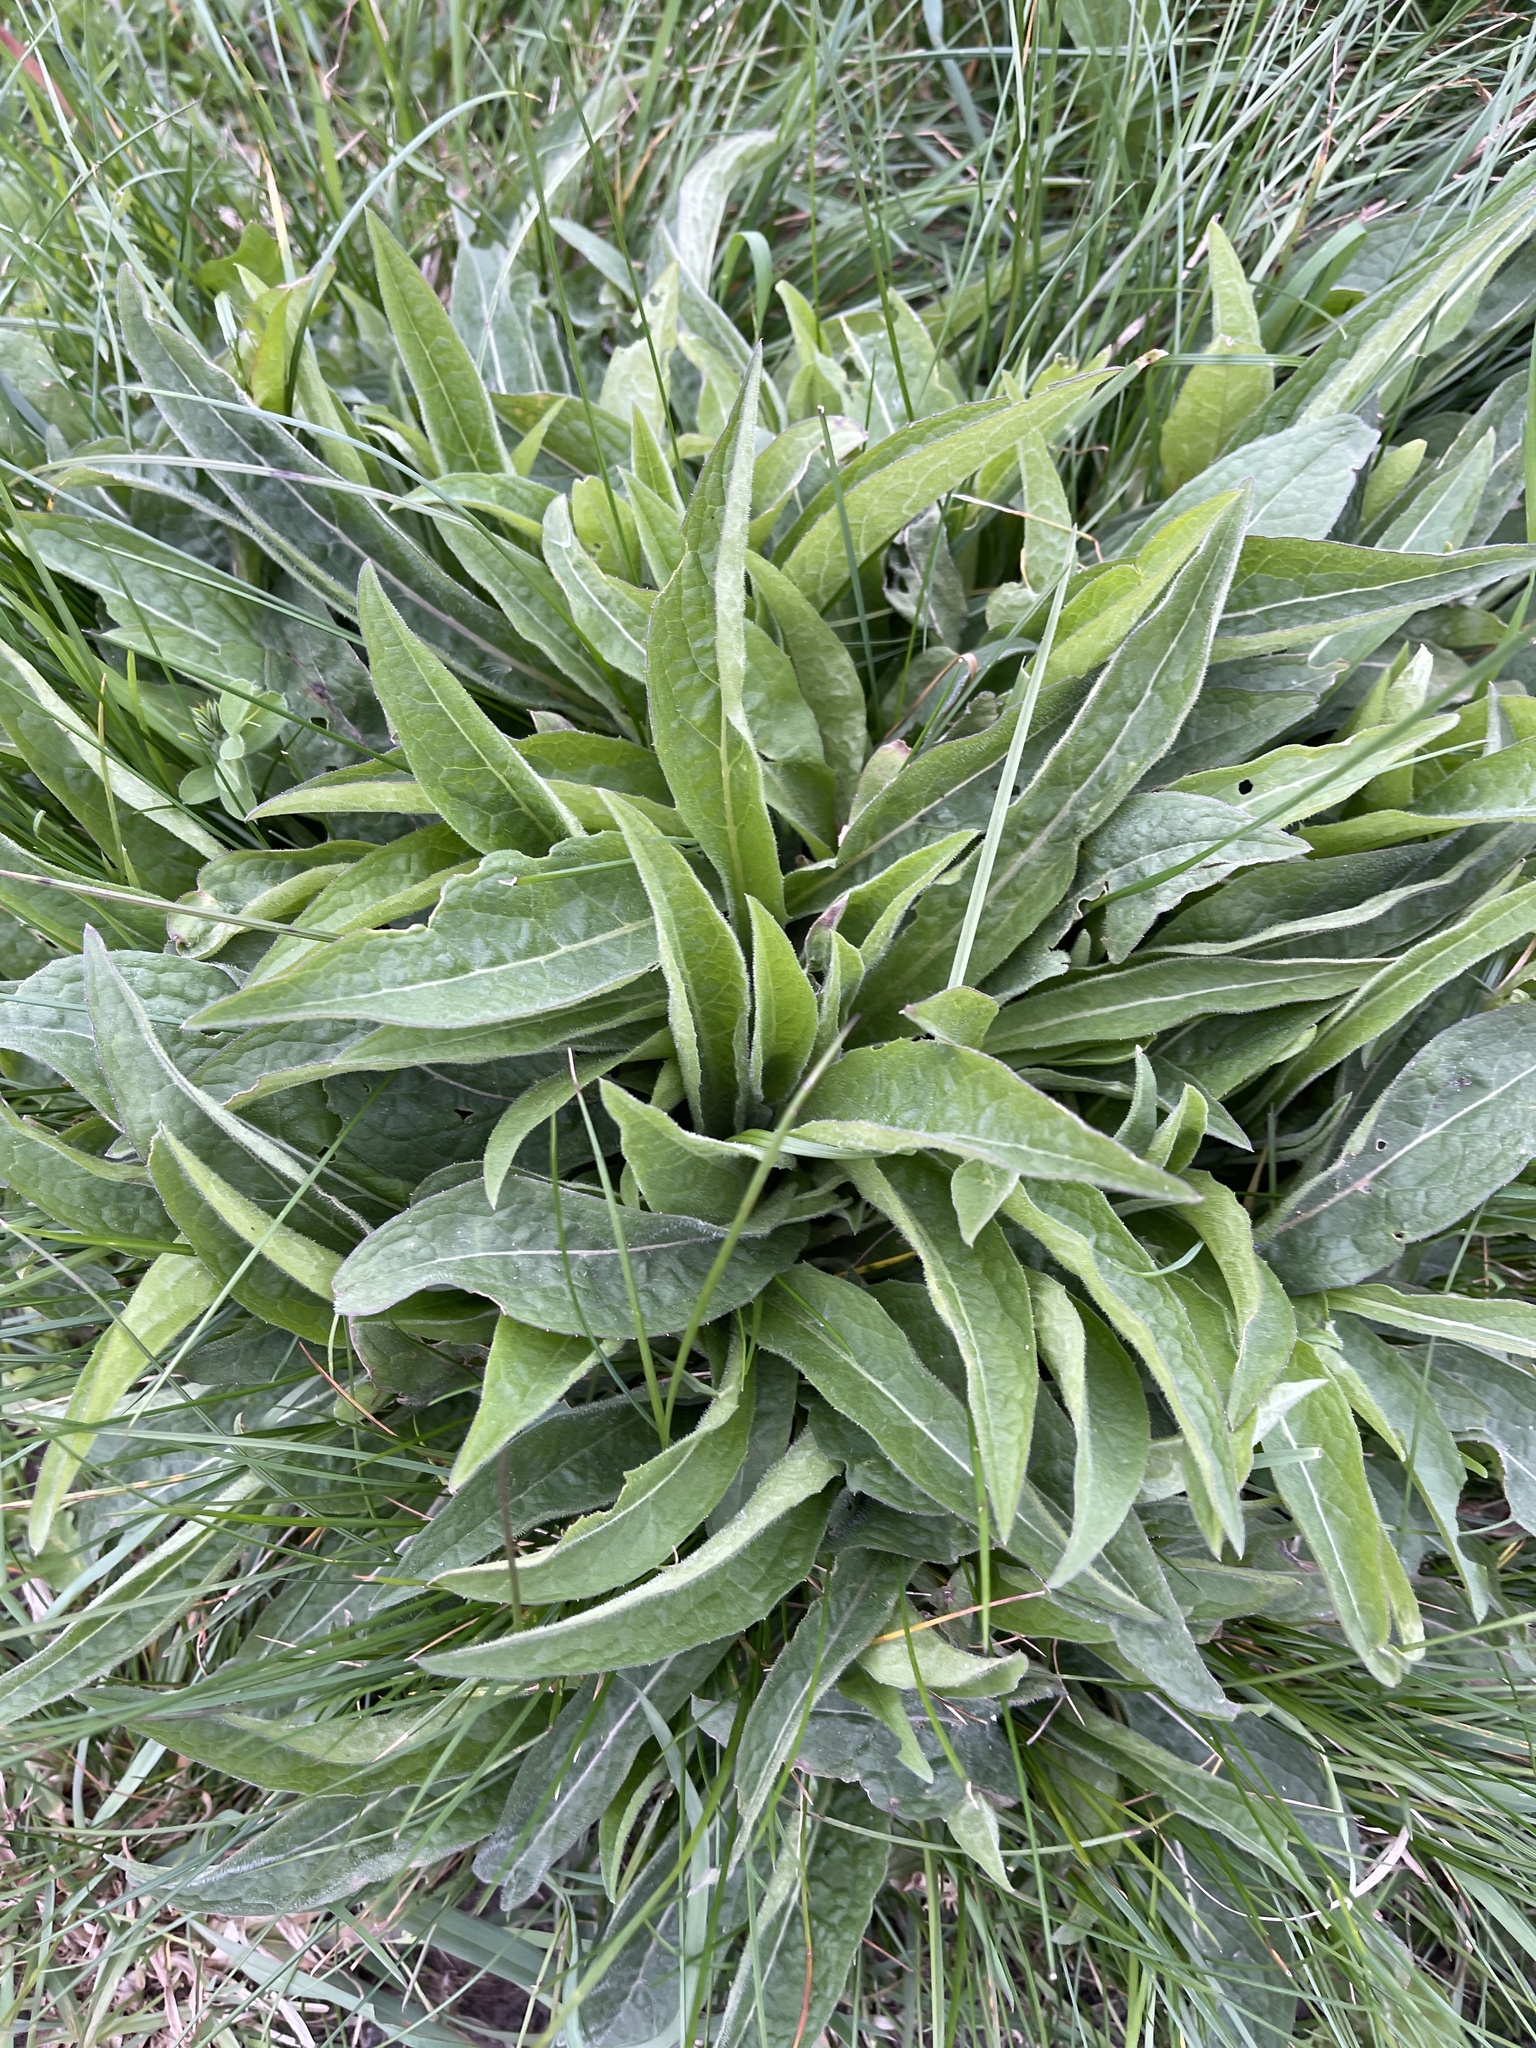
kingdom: Plantae
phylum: Tracheophyta
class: Magnoliopsida
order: Asterales
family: Asteraceae
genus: Centaurea
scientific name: Centaurea nigra
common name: Lesser knapweed
